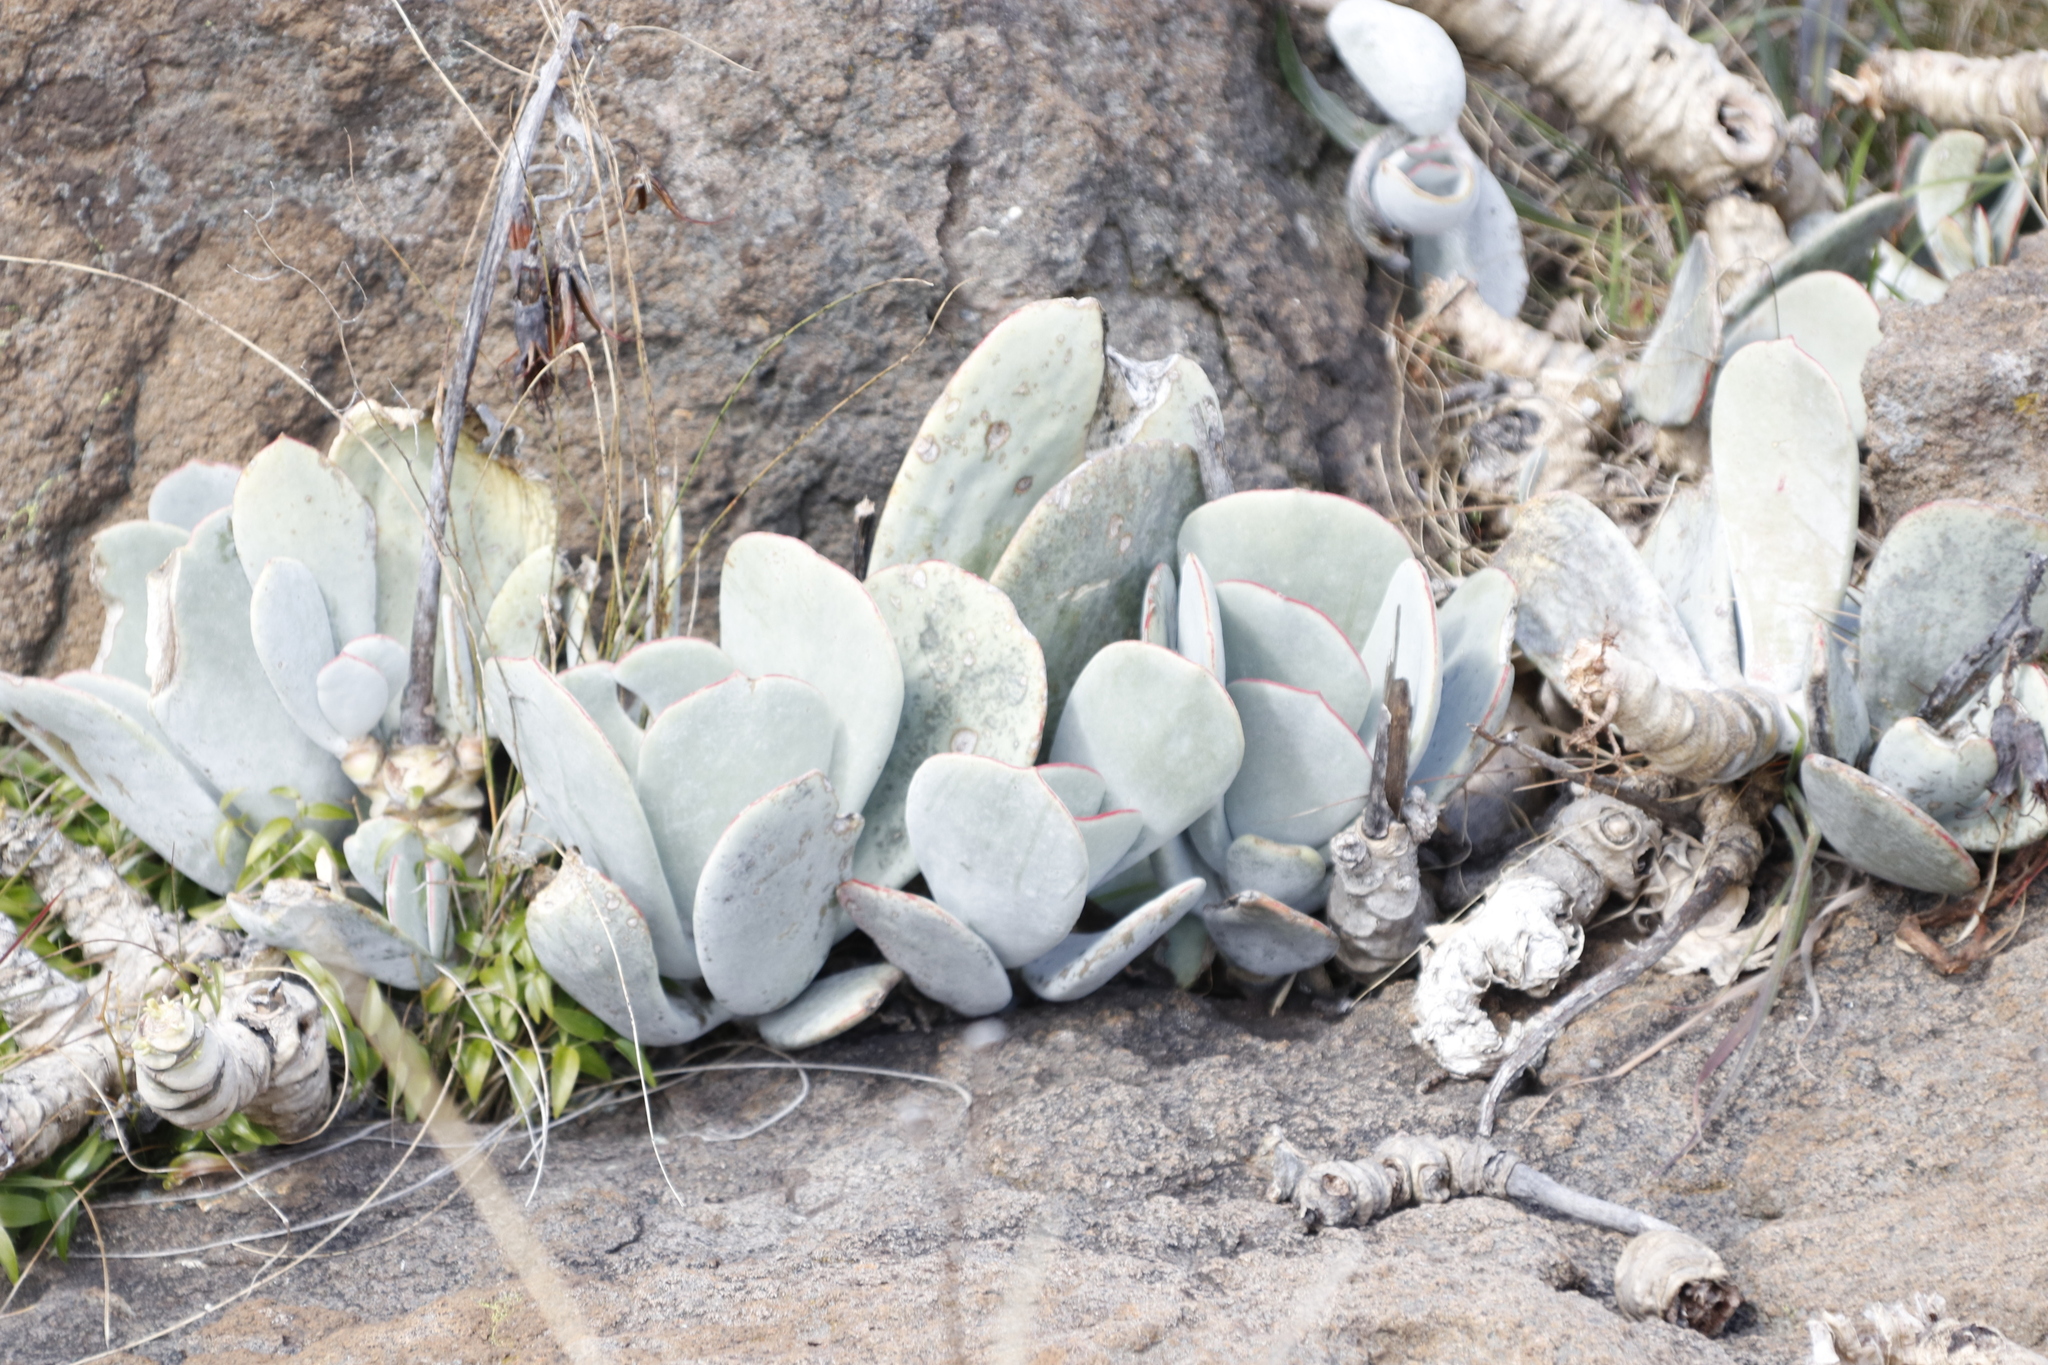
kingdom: Plantae
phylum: Tracheophyta
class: Magnoliopsida
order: Saxifragales
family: Crassulaceae
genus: Cotyledon
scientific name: Cotyledon orbiculata
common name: Pig's ear
